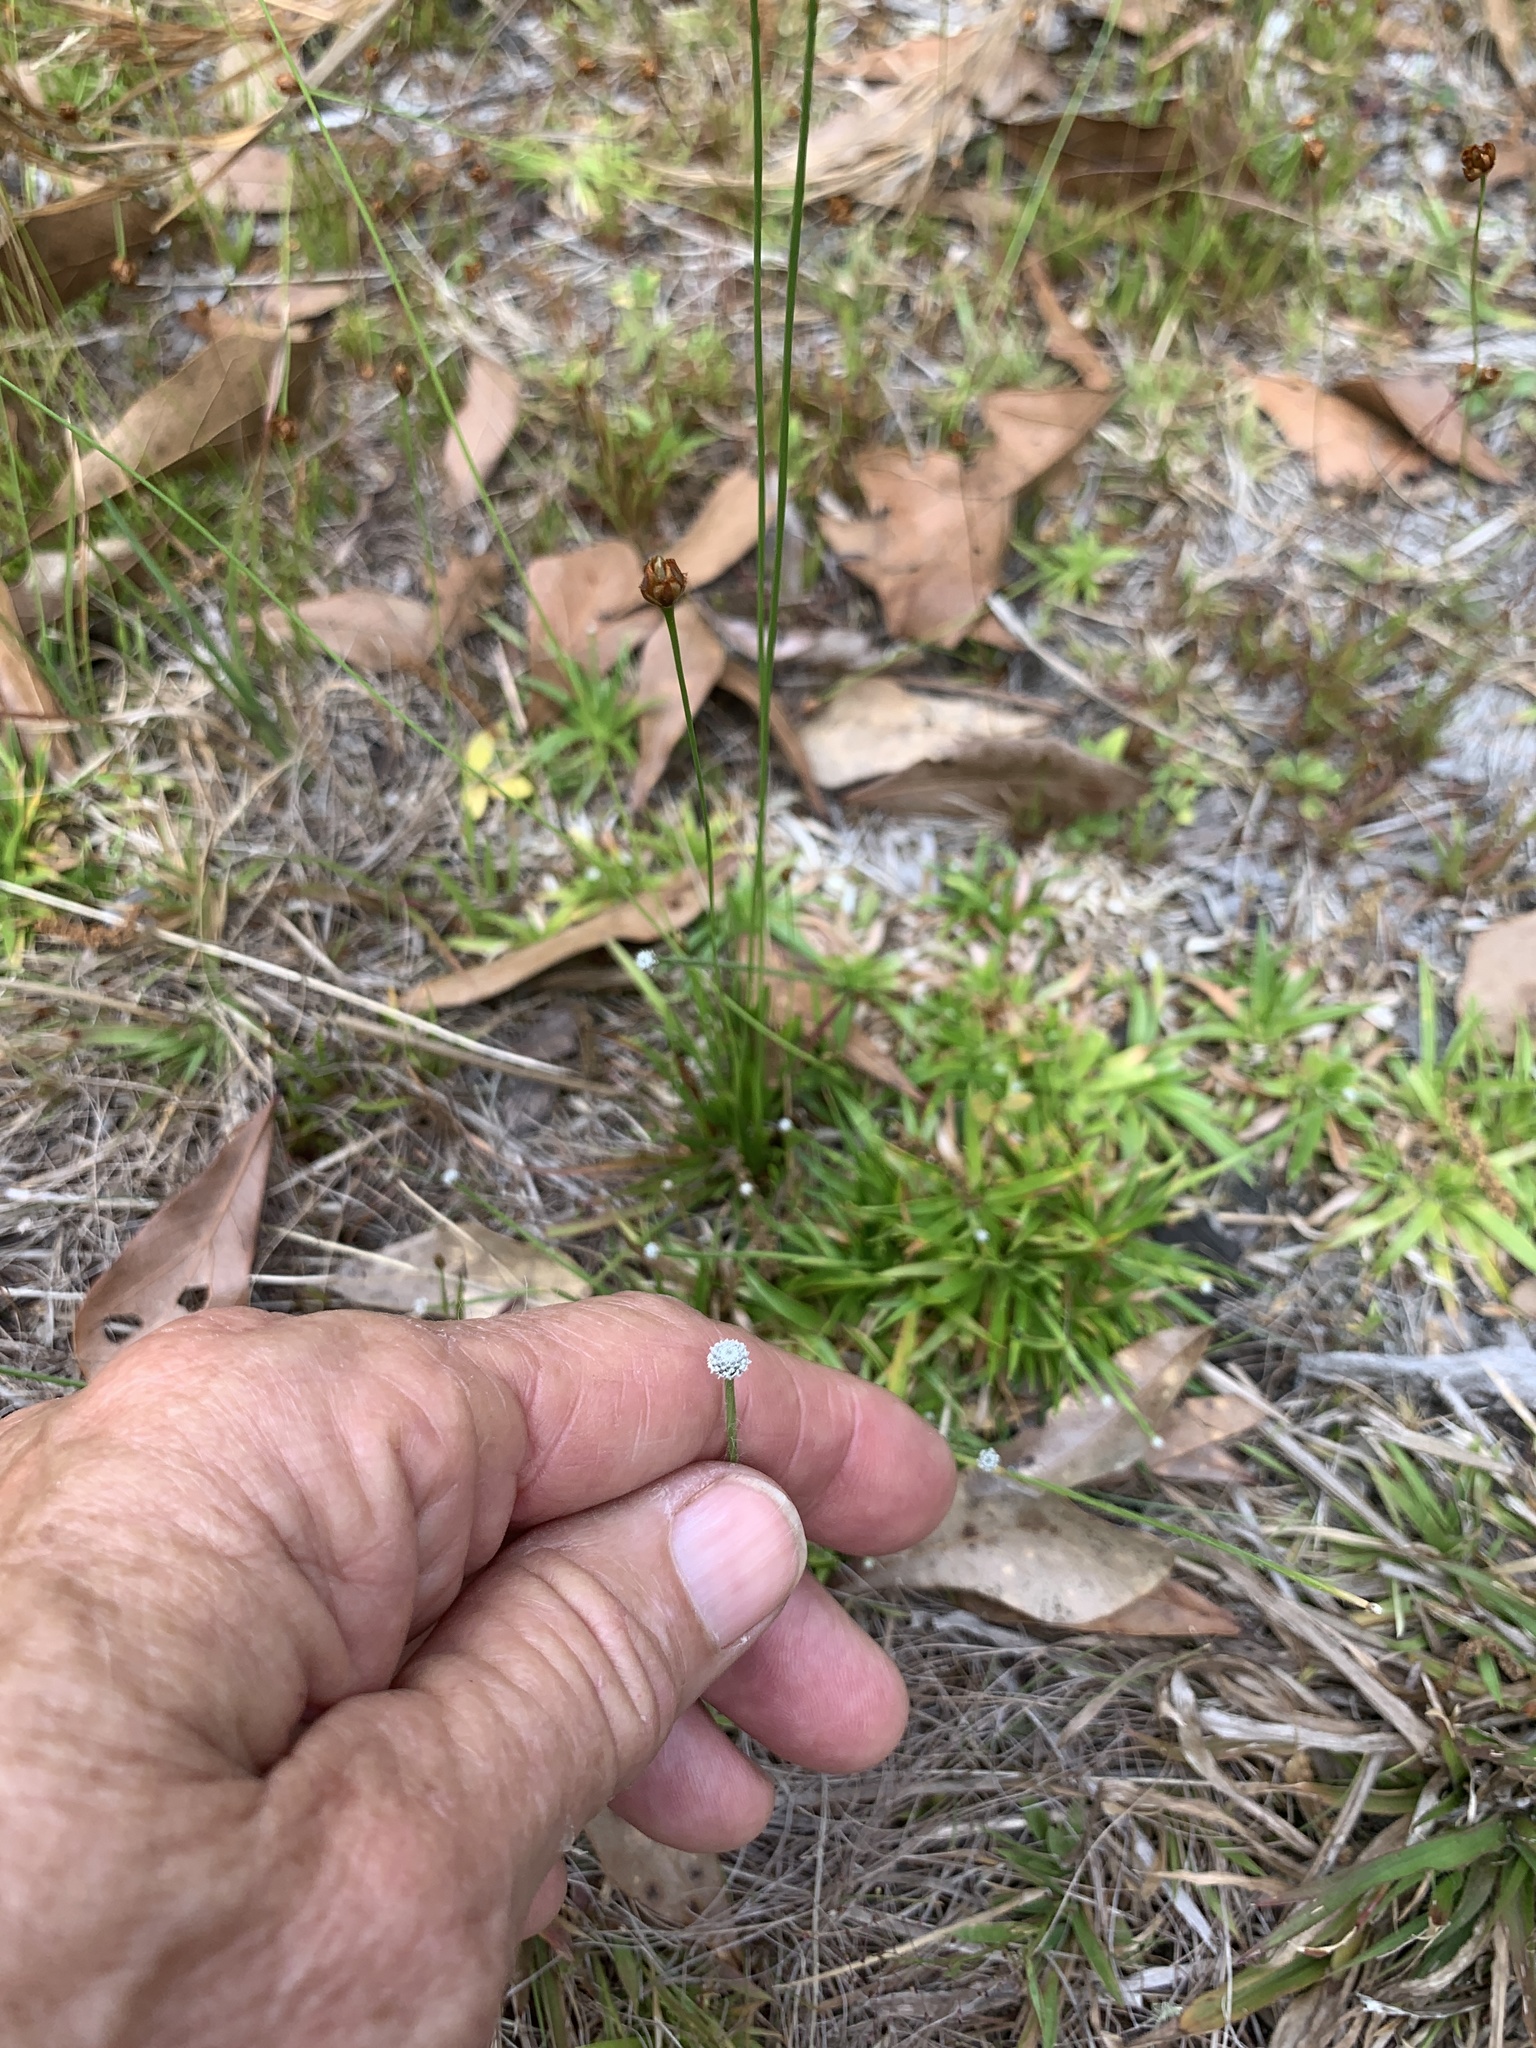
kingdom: Plantae
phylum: Tracheophyta
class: Liliopsida
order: Poales
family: Eriocaulaceae
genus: Paepalanthus
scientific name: Paepalanthus anceps
